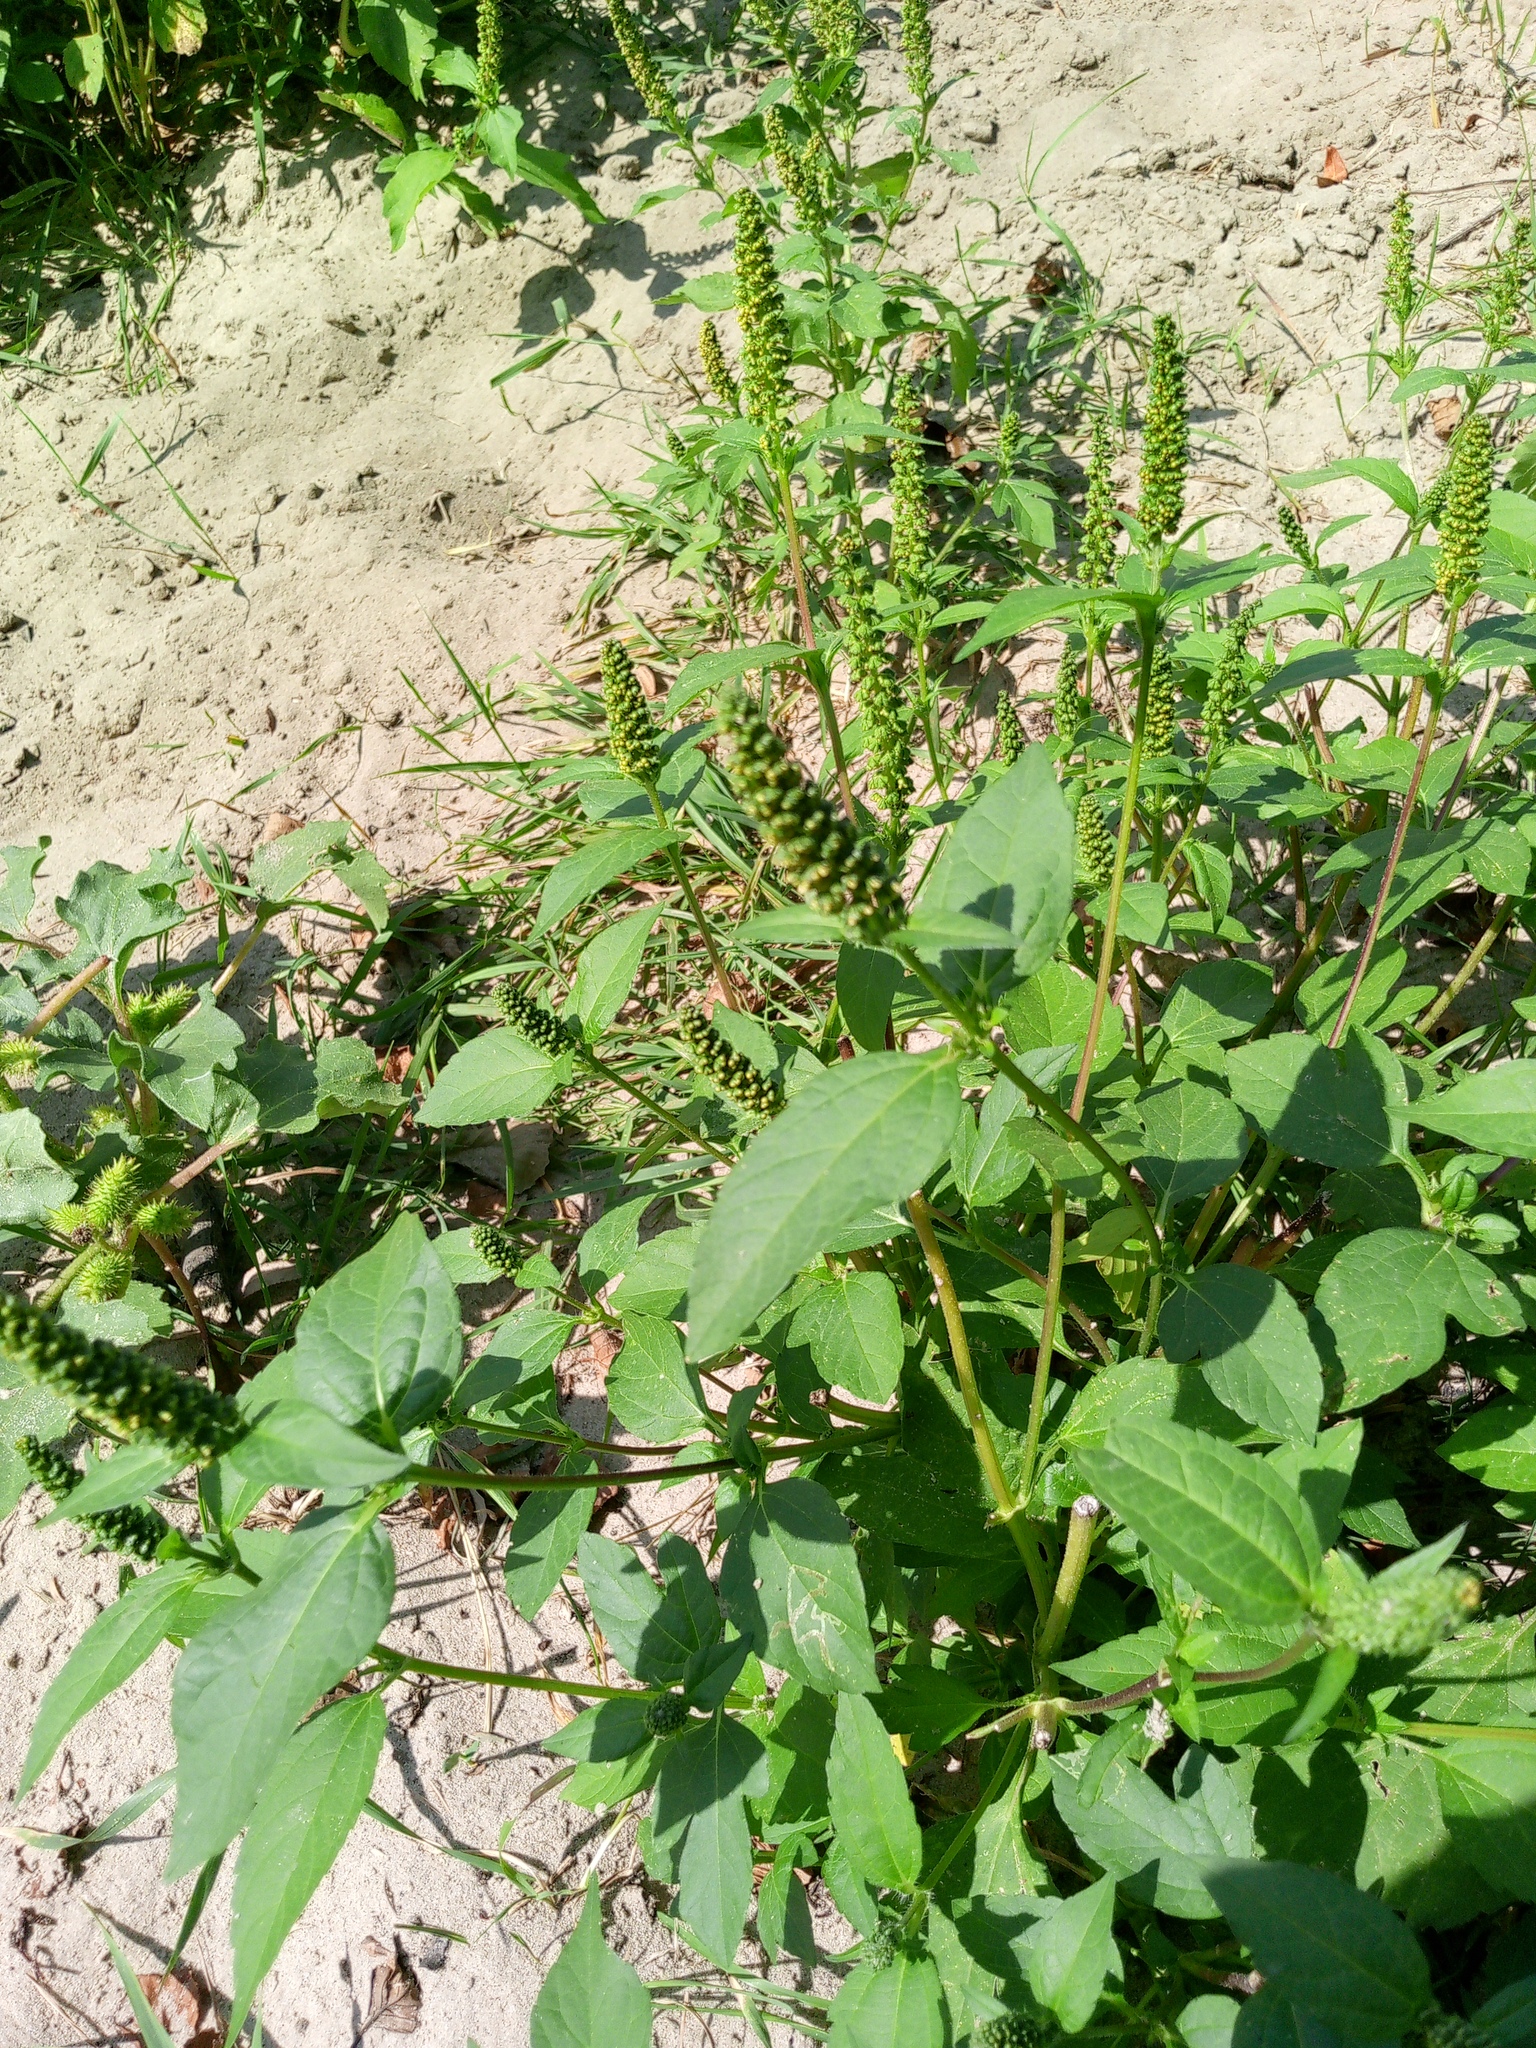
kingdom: Plantae
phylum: Tracheophyta
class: Magnoliopsida
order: Asterales
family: Asteraceae
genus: Ambrosia
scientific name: Ambrosia trifida
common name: Giant ragweed
